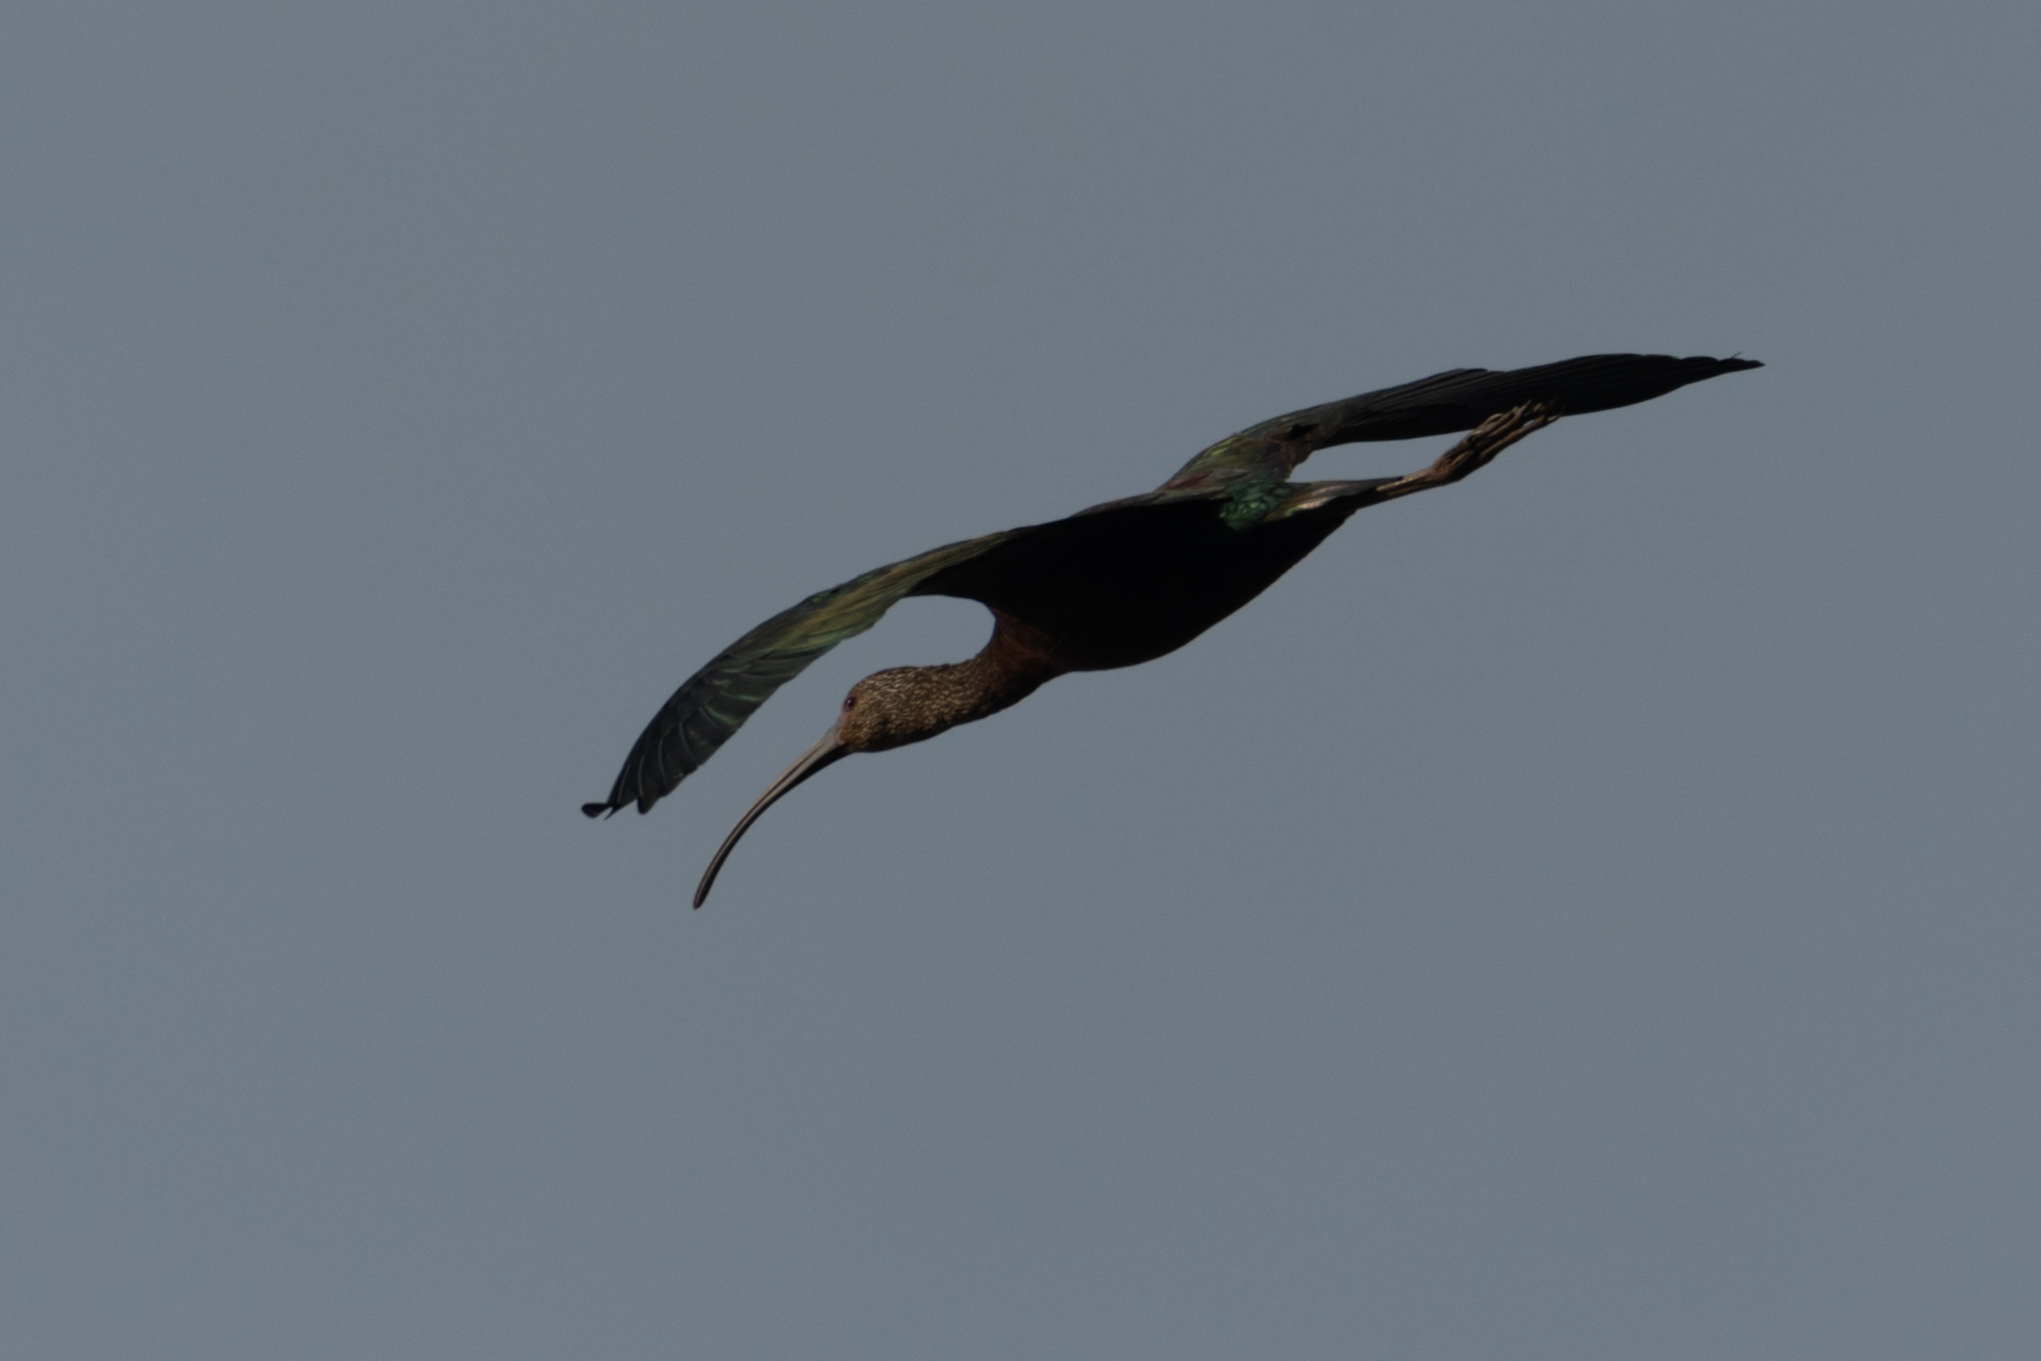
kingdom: Animalia
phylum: Chordata
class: Aves
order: Pelecaniformes
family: Threskiornithidae
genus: Plegadis
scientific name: Plegadis chihi
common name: White-faced ibis
